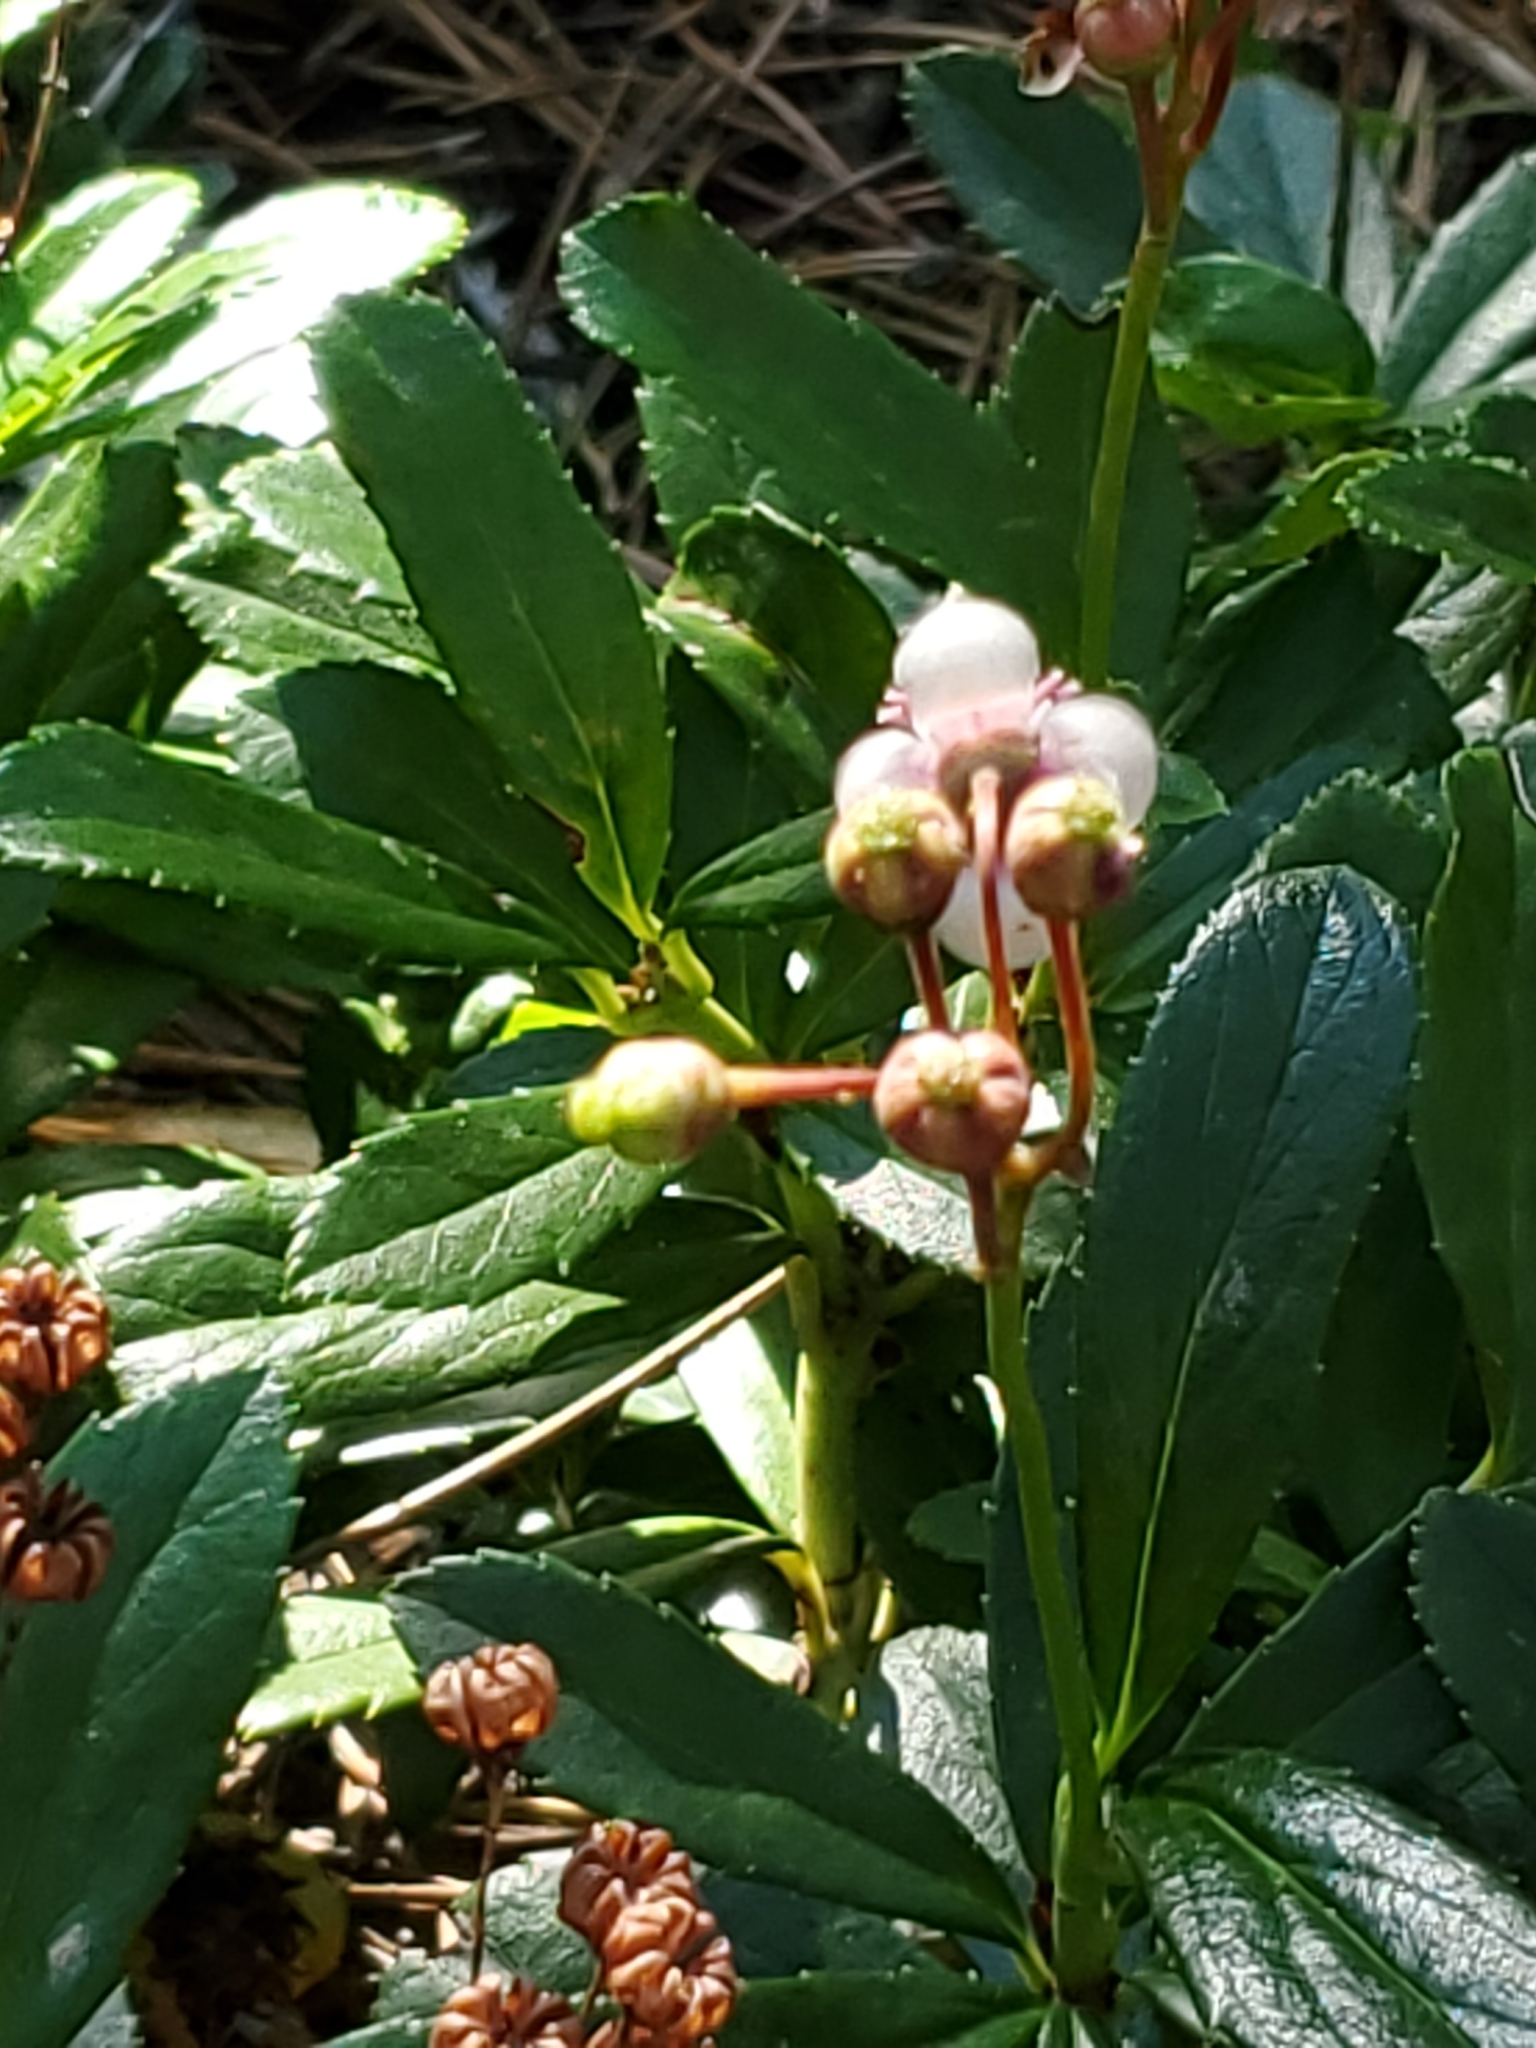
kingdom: Plantae
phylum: Tracheophyta
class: Magnoliopsida
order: Ericales
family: Ericaceae
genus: Chimaphila
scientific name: Chimaphila umbellata
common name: Pipsissewa
